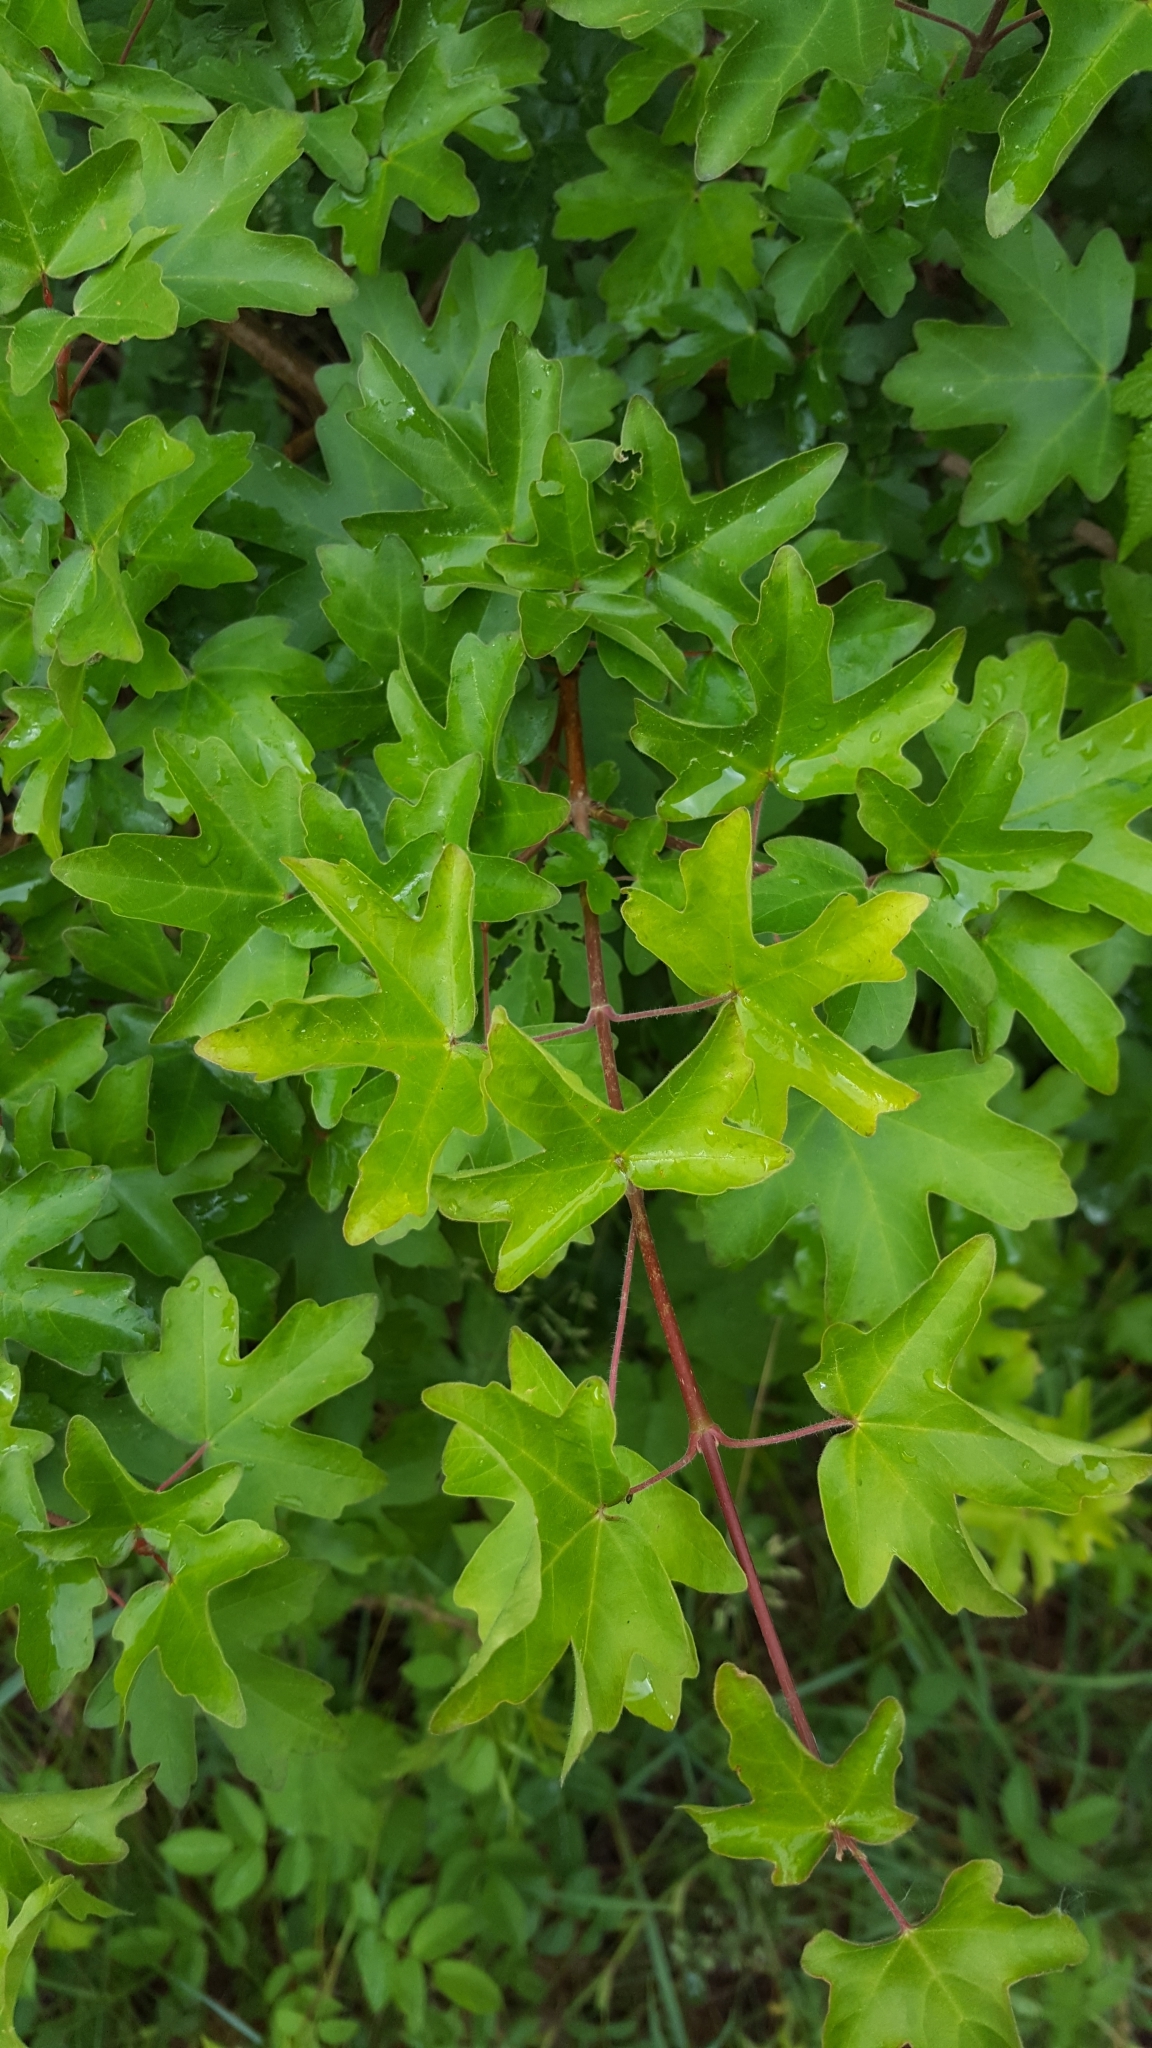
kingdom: Plantae
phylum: Tracheophyta
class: Magnoliopsida
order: Sapindales
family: Sapindaceae
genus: Acer
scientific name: Acer campestre
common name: Field maple
